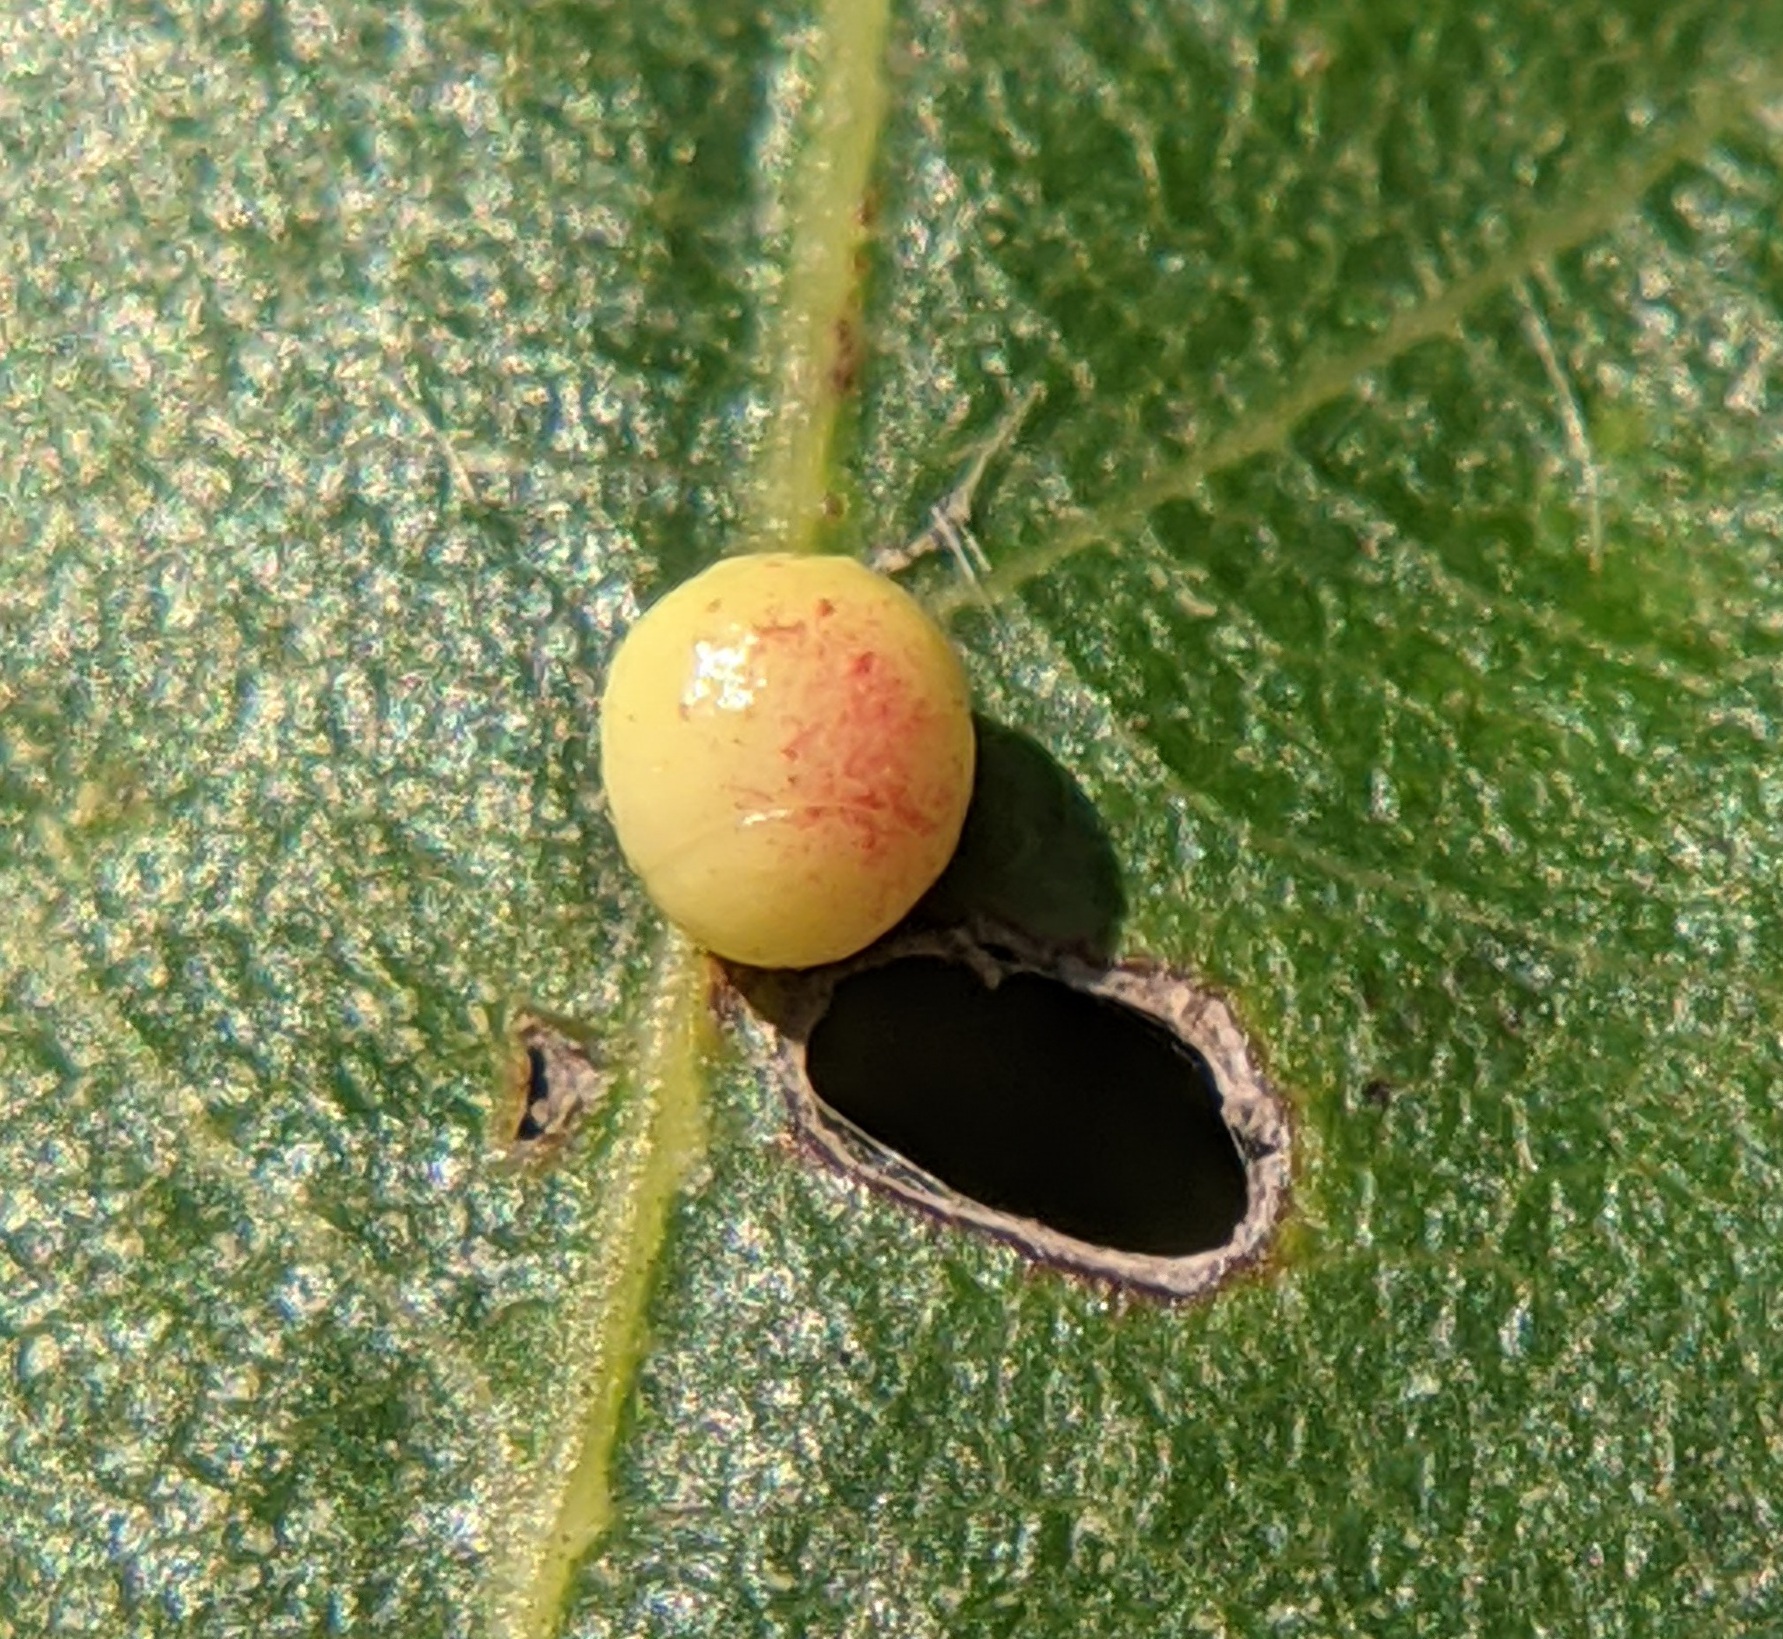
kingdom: Animalia
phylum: Arthropoda
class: Insecta
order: Hymenoptera
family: Cynipidae
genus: Zopheroteras
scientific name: Zopheroteras
